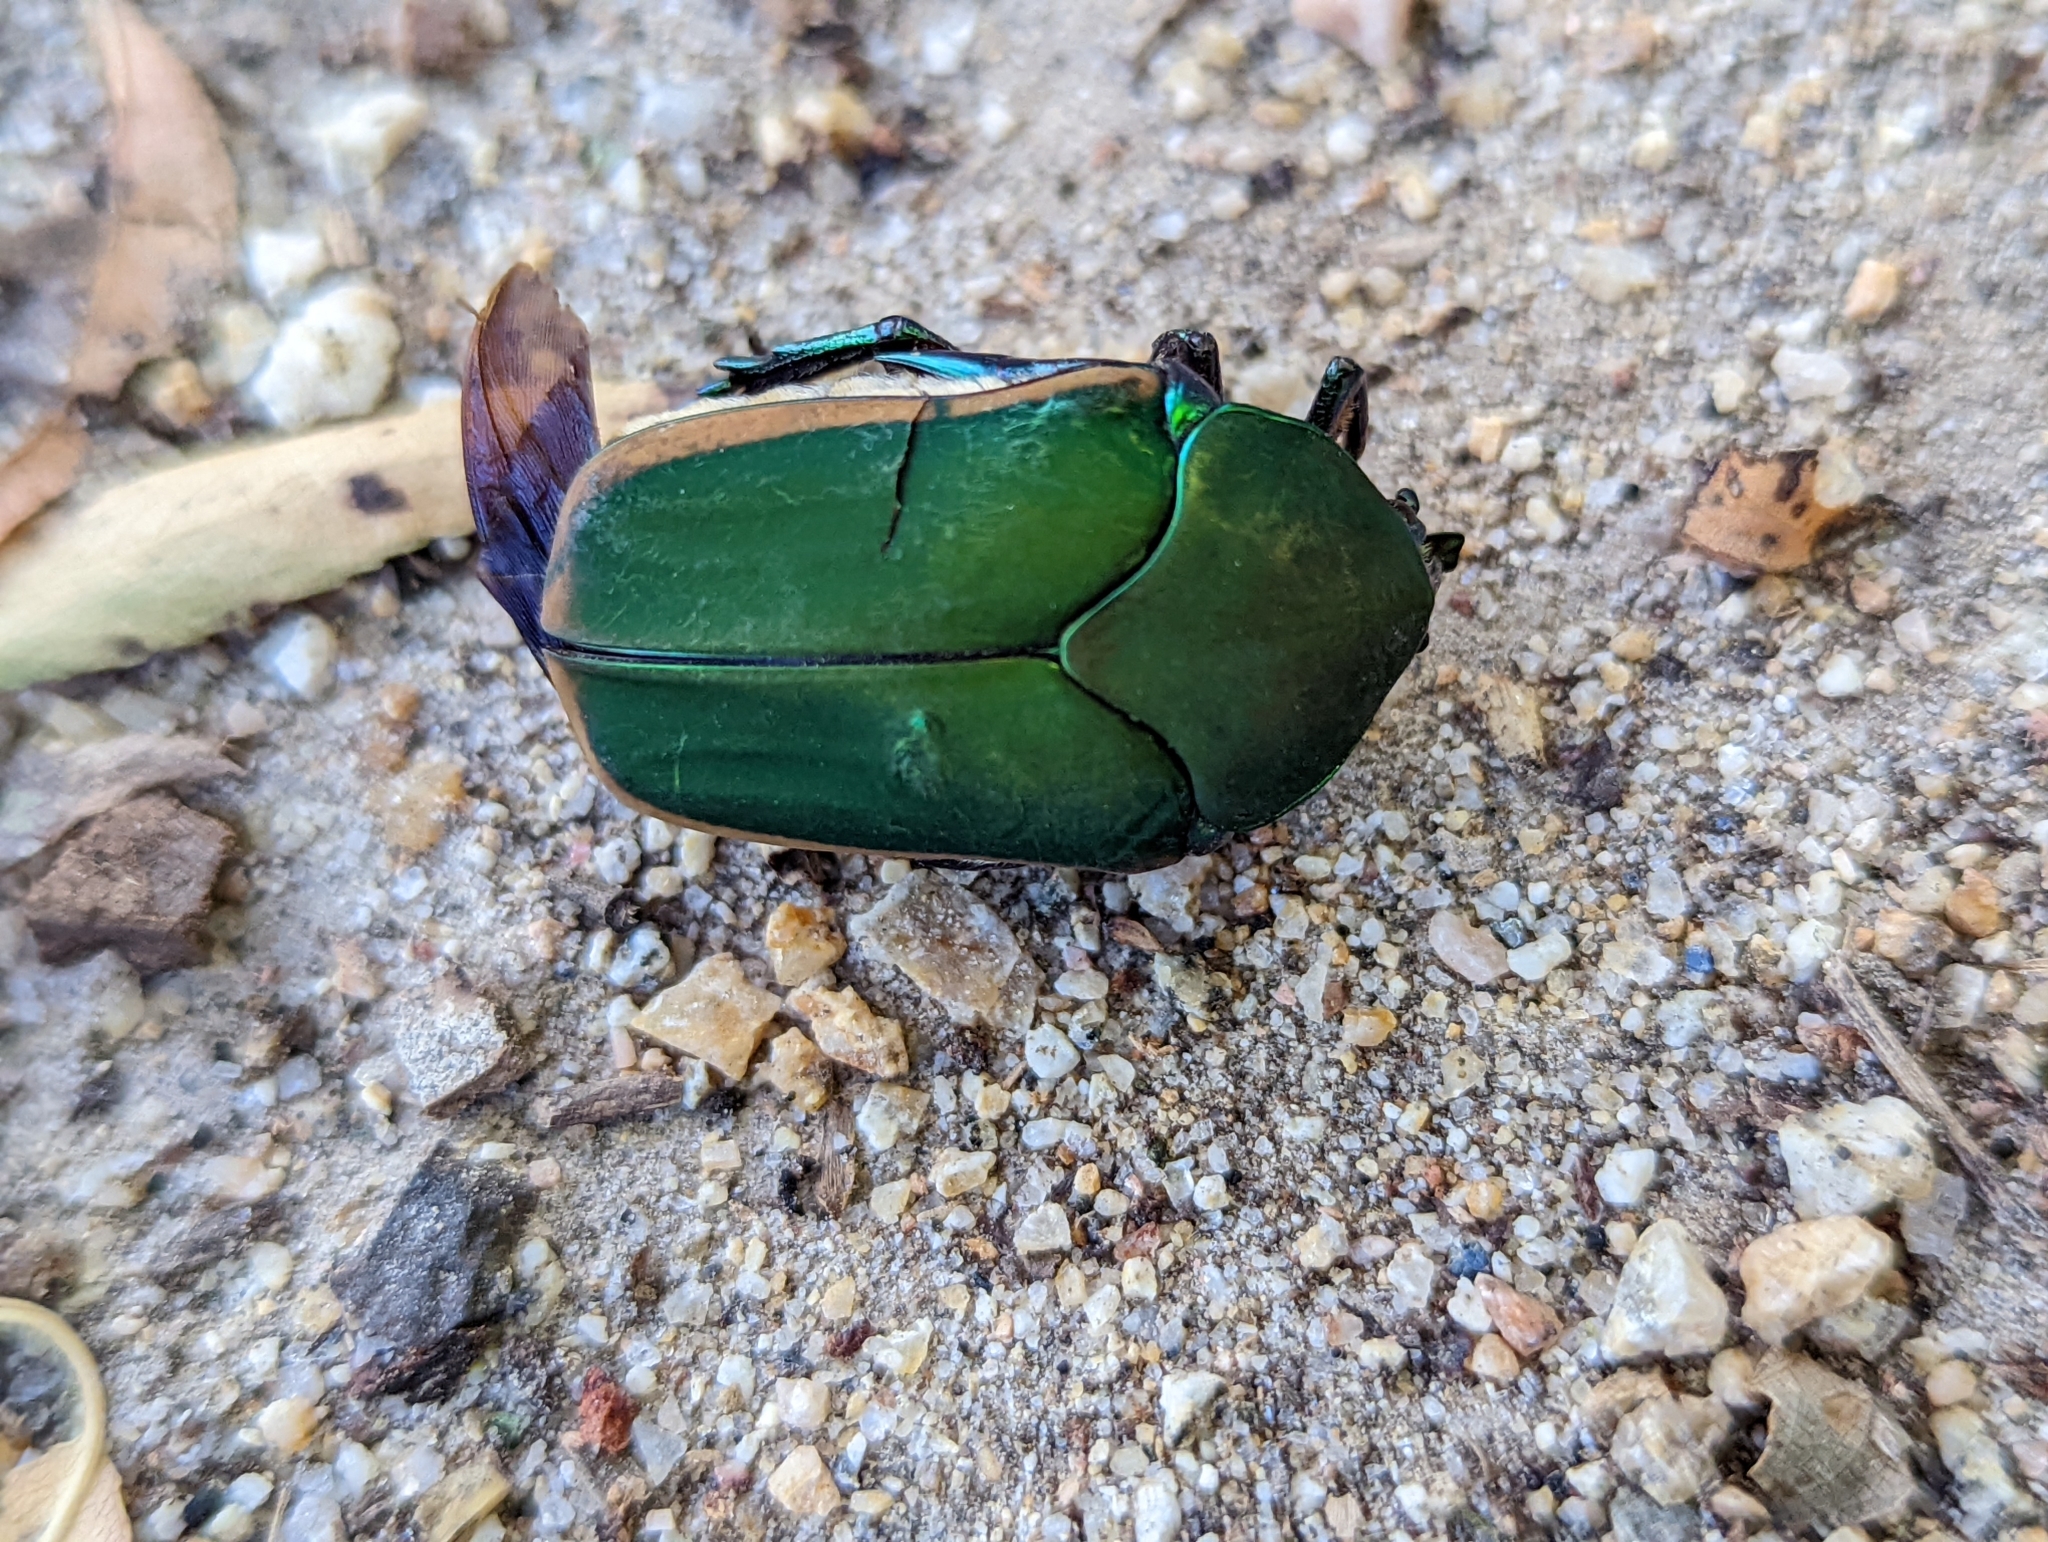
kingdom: Animalia
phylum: Arthropoda
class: Insecta
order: Coleoptera
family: Scarabaeidae
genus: Cotinis
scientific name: Cotinis mutabilis
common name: Figeater beetle
